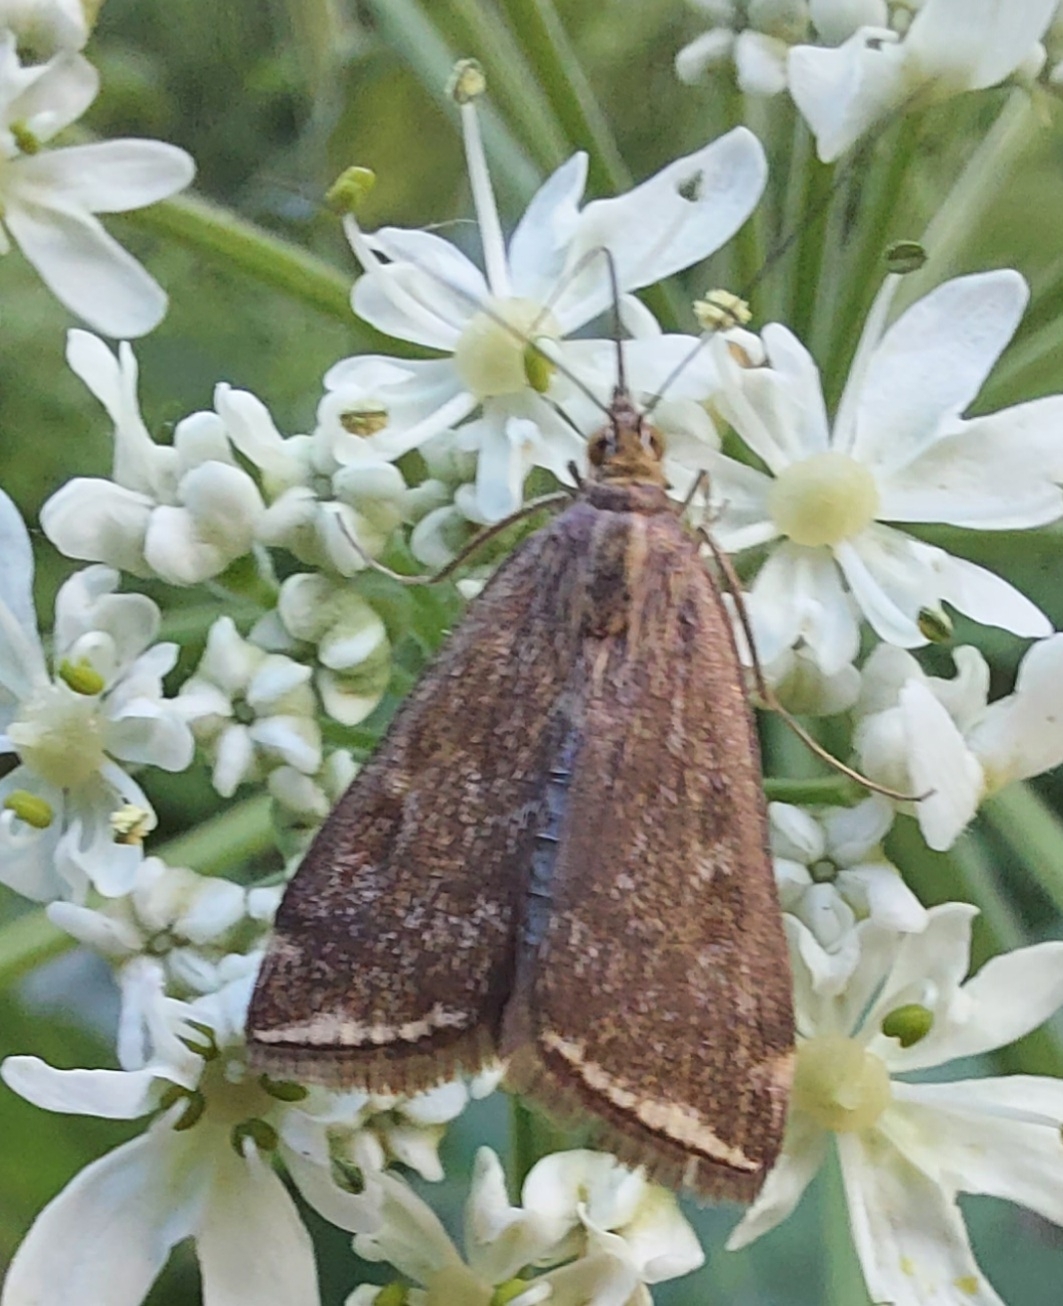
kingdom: Animalia
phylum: Arthropoda
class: Insecta
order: Lepidoptera
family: Crambidae
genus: Loxostege
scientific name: Loxostege sticticalis
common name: Crambid moth
